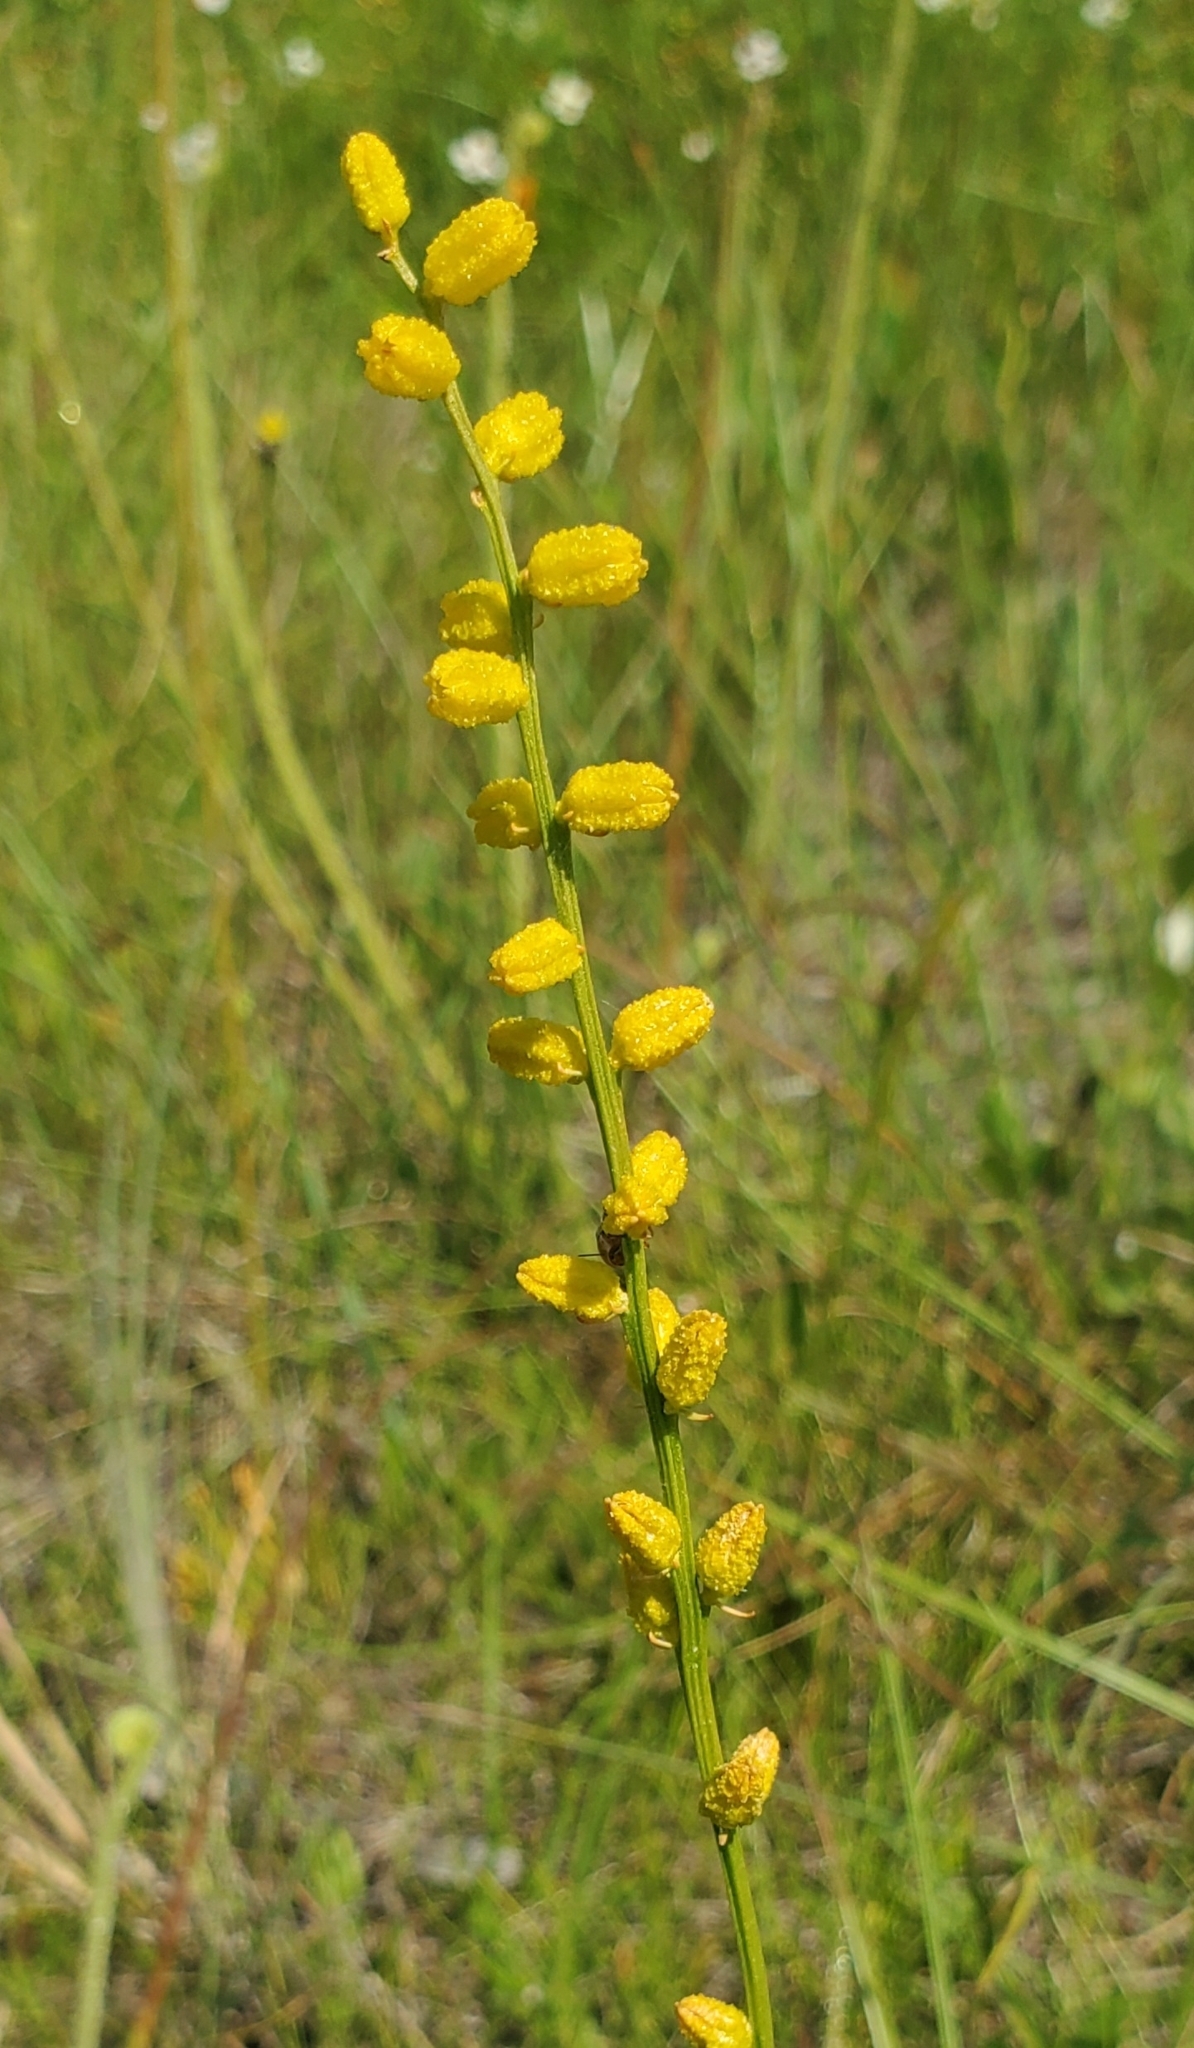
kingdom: Plantae
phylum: Tracheophyta
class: Liliopsida
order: Dioscoreales
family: Nartheciaceae
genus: Aletris
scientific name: Aletris aurea
